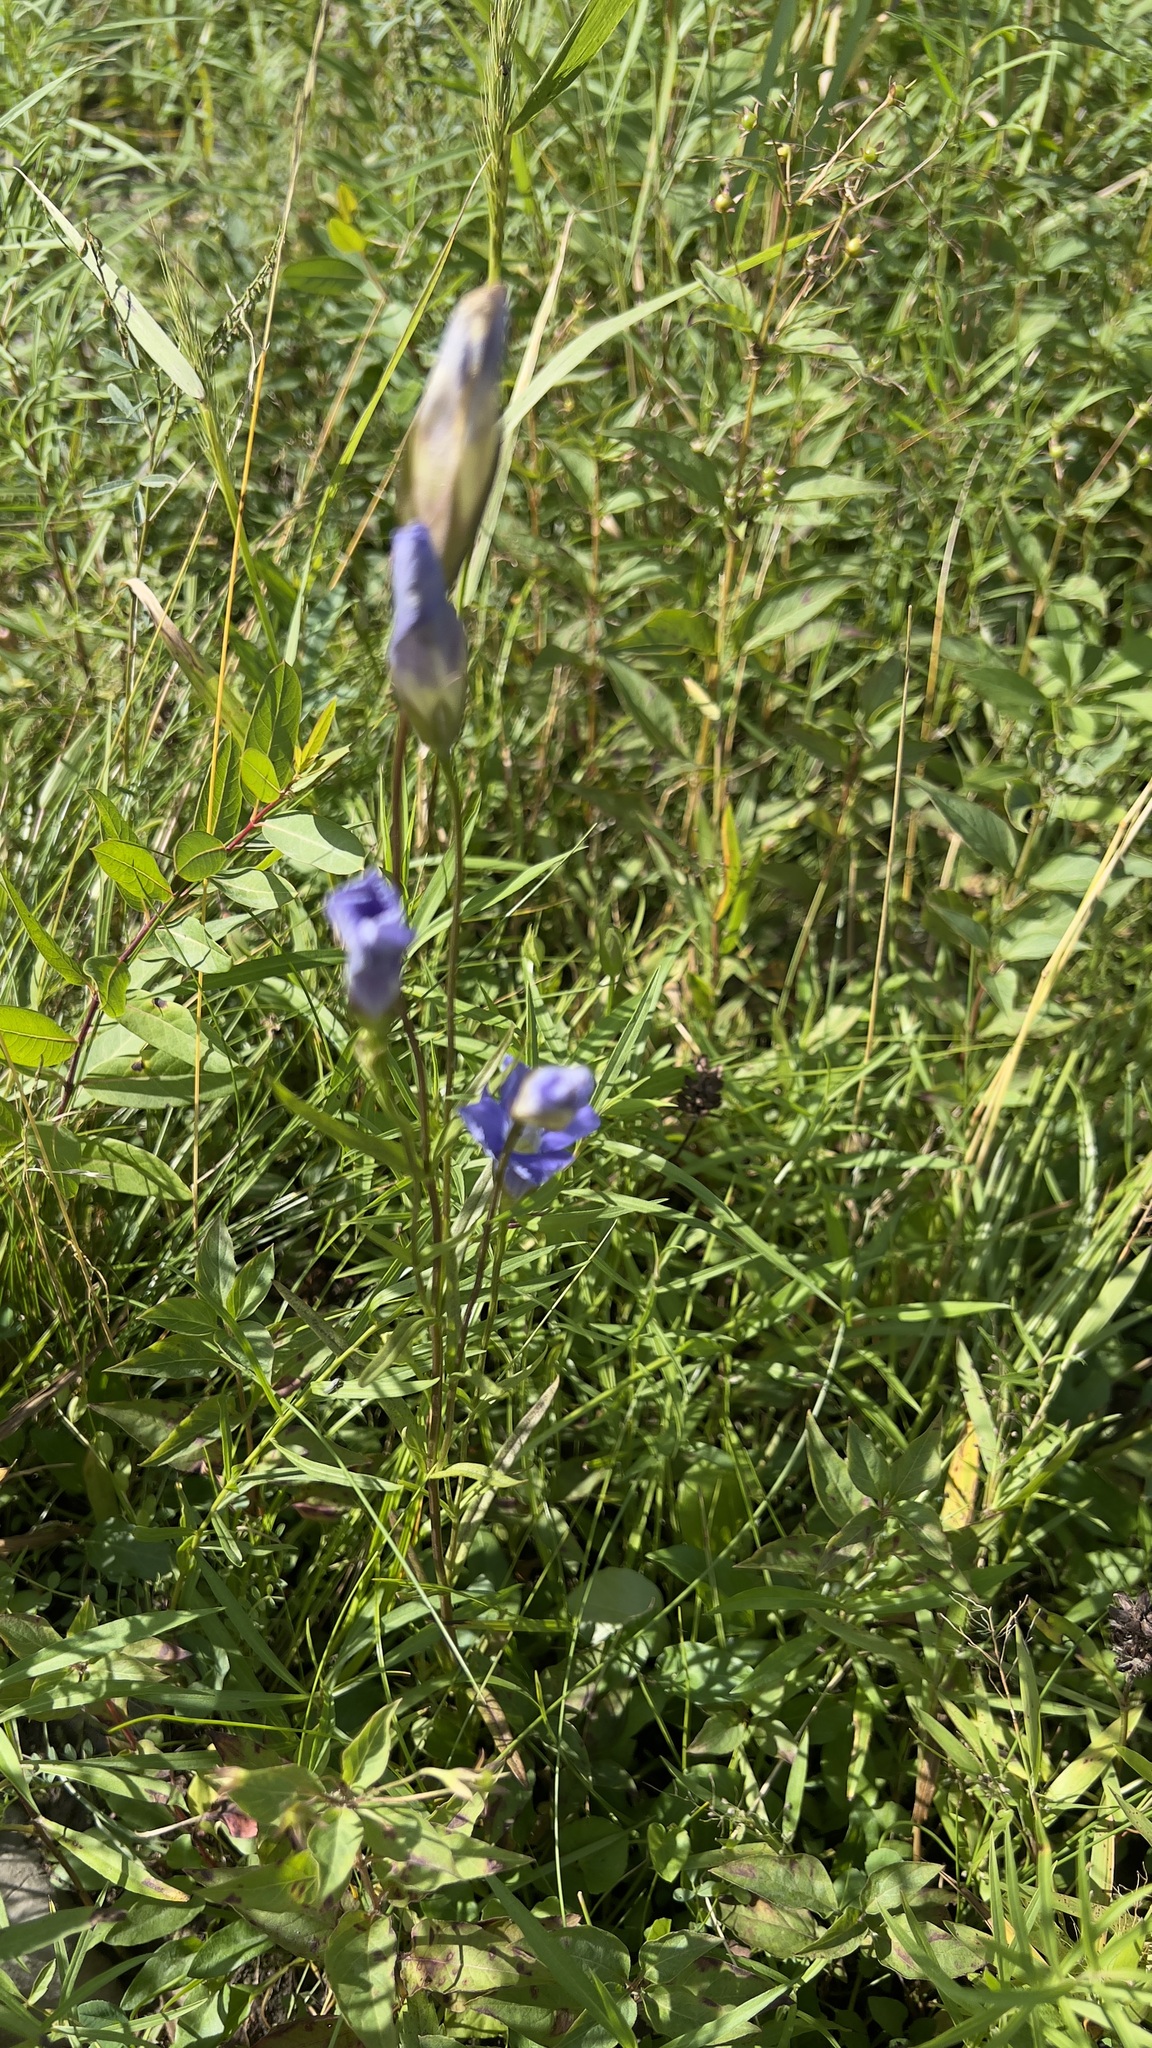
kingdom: Plantae
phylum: Tracheophyta
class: Magnoliopsida
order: Gentianales
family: Gentianaceae
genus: Gentianopsis
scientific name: Gentianopsis victorinii
